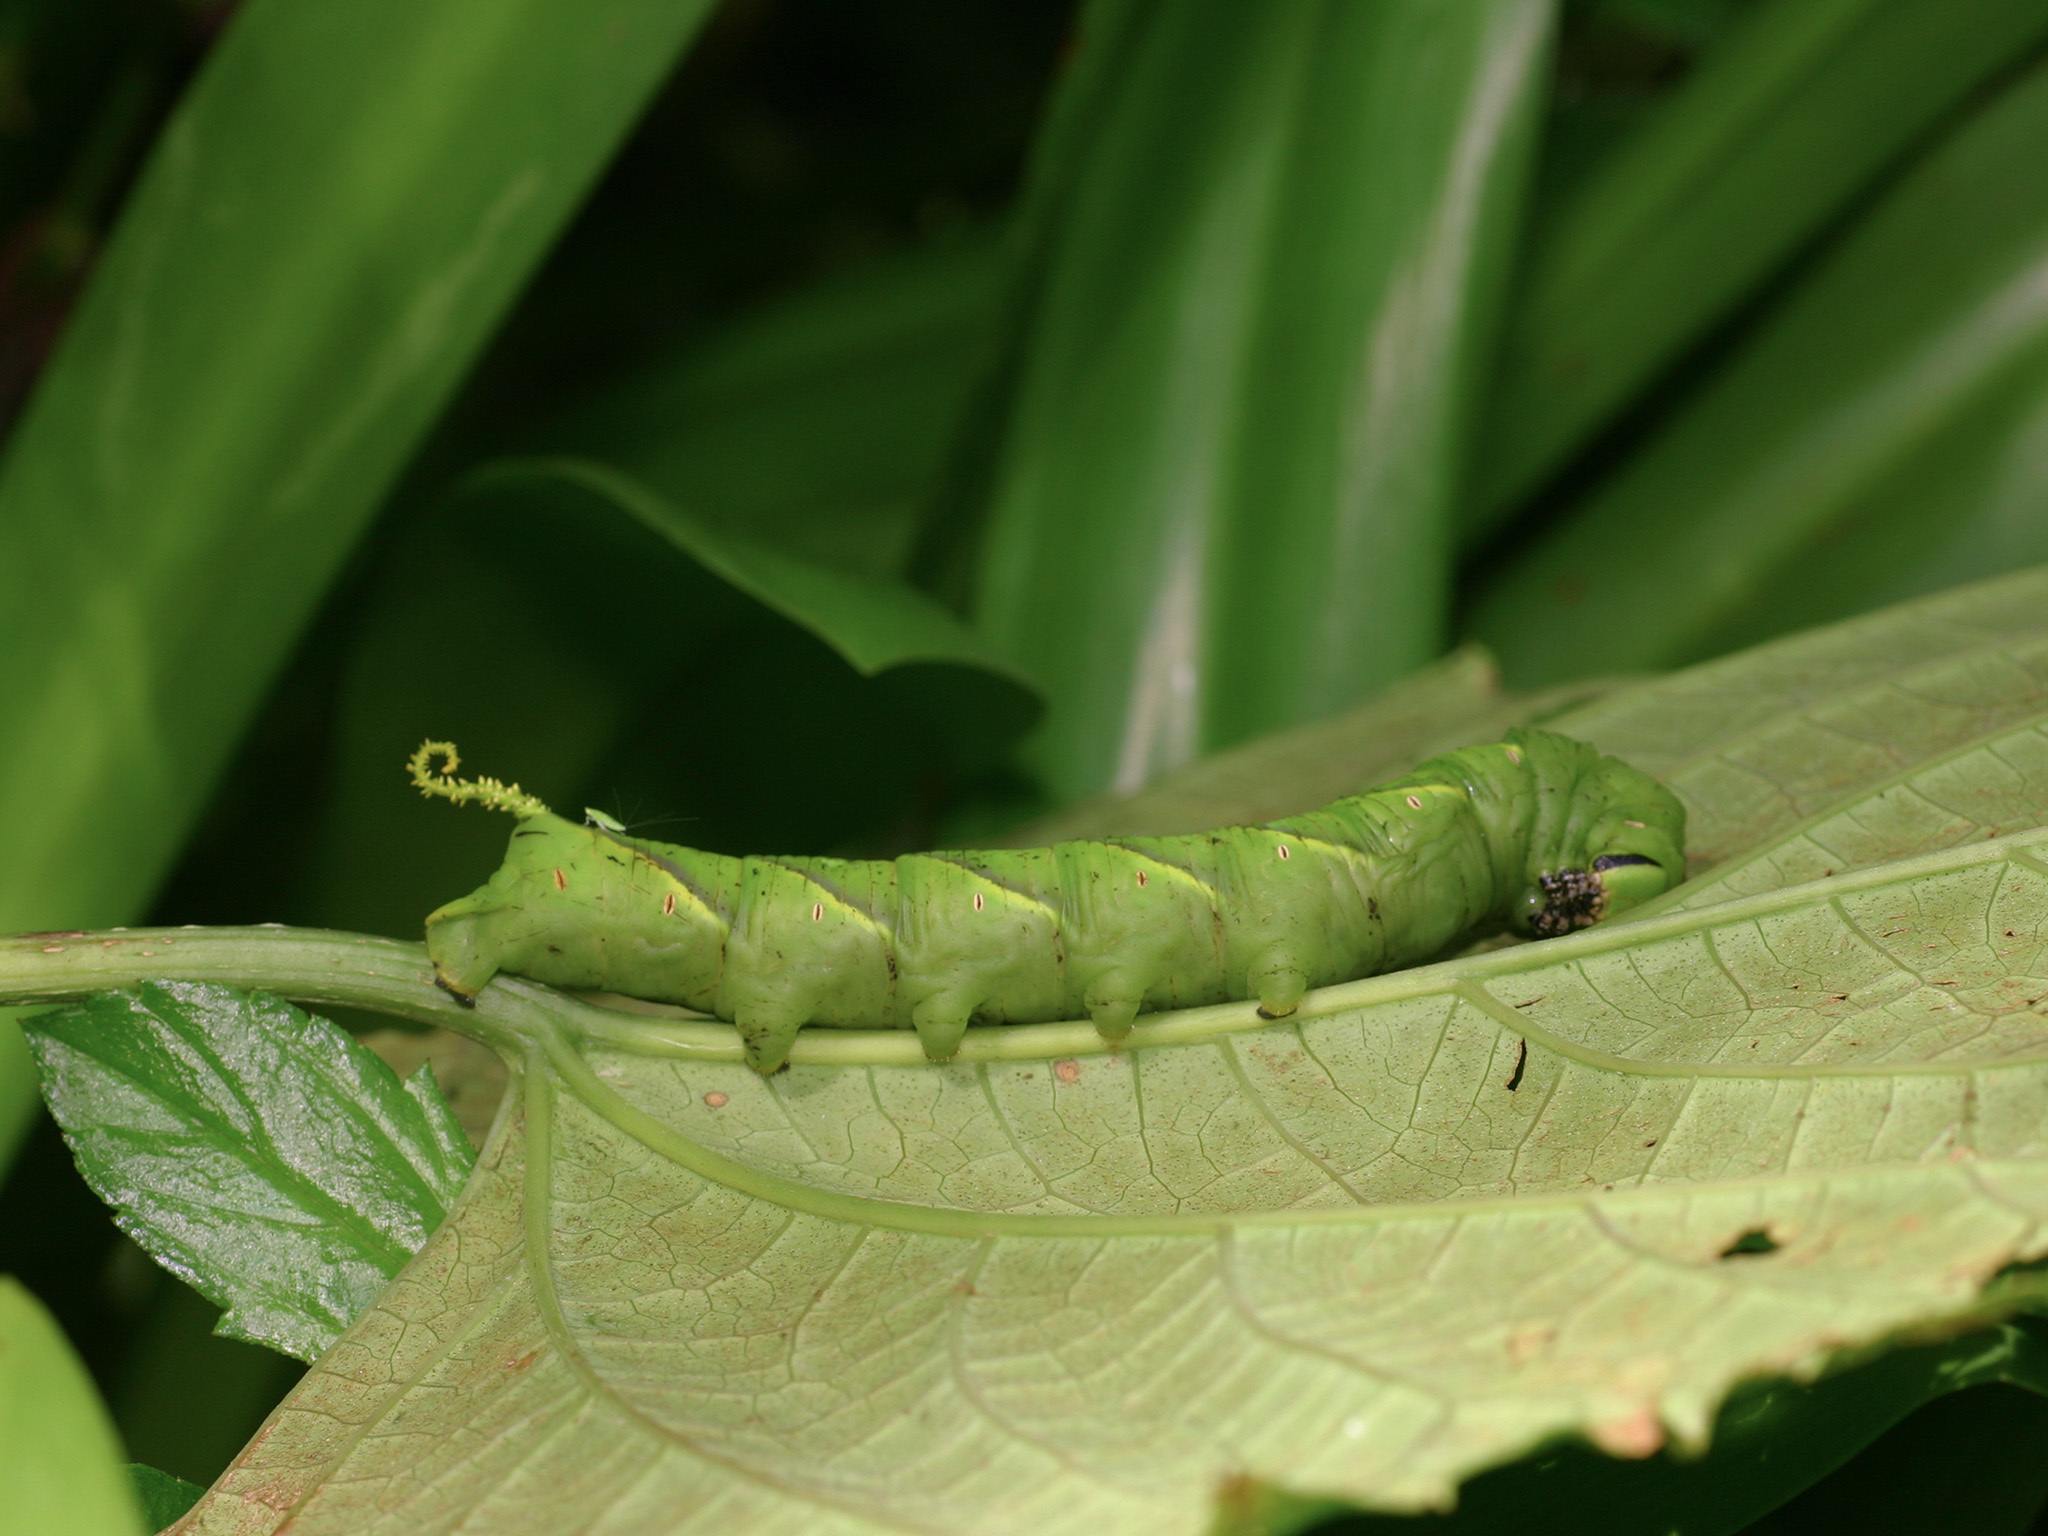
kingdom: Animalia
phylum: Arthropoda
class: Insecta
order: Lepidoptera
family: Sphingidae
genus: Acherontia
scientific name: Acherontia lachesis
